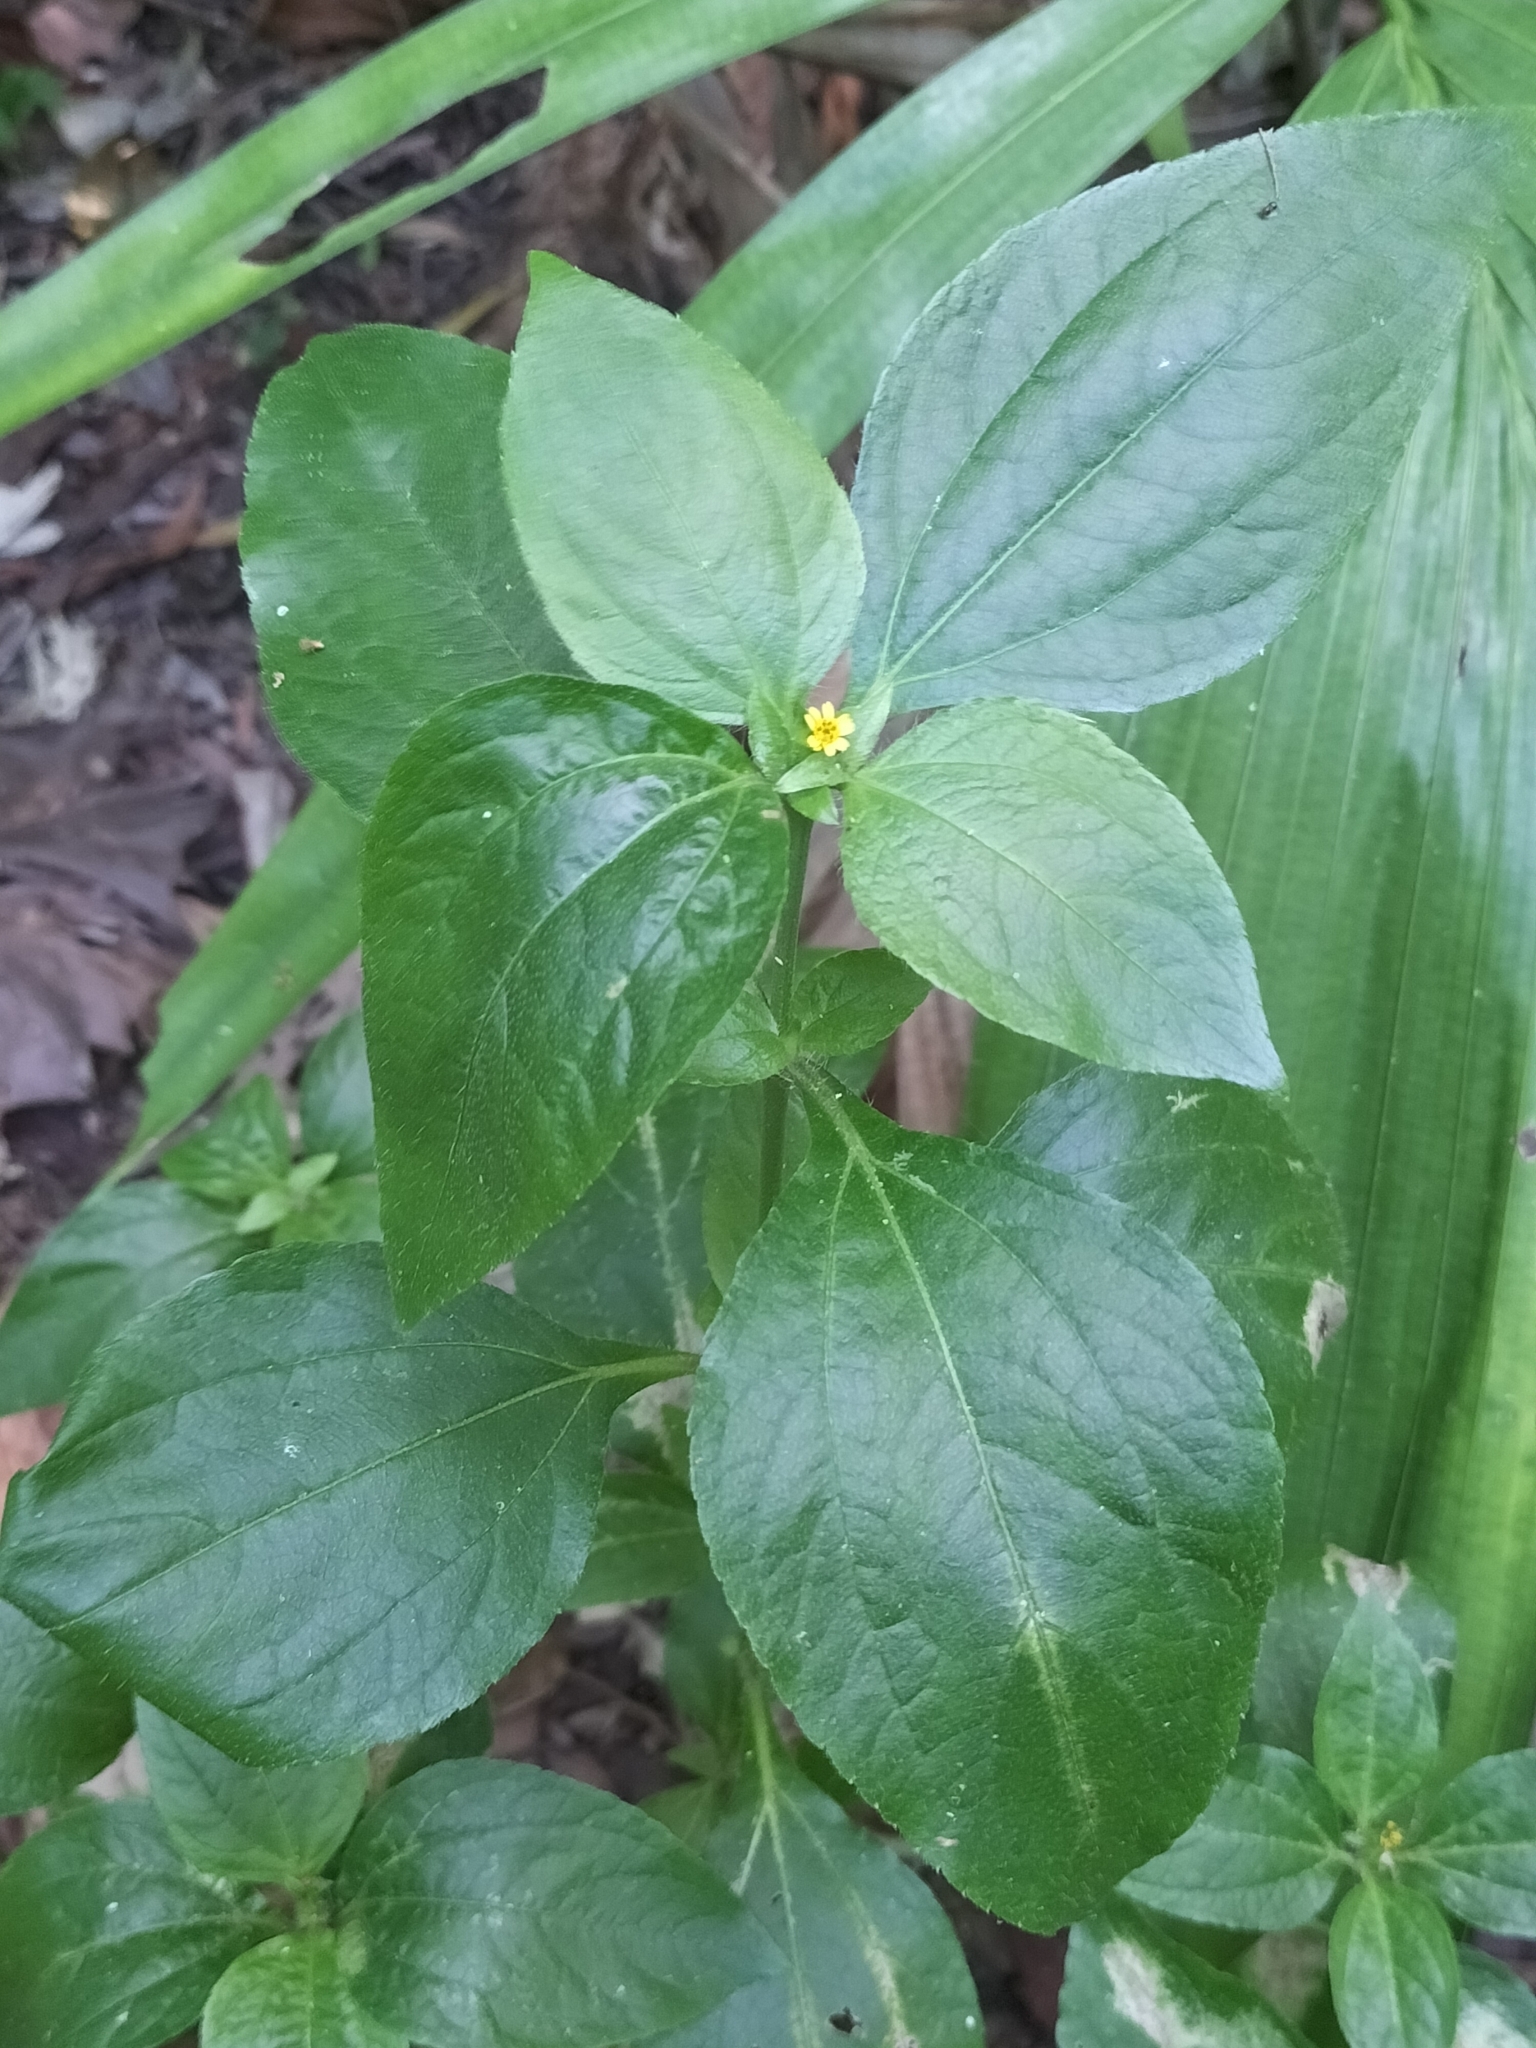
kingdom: Plantae
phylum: Tracheophyta
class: Magnoliopsida
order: Asterales
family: Asteraceae
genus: Synedrella
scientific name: Synedrella nodiflora
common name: Nodeweed
